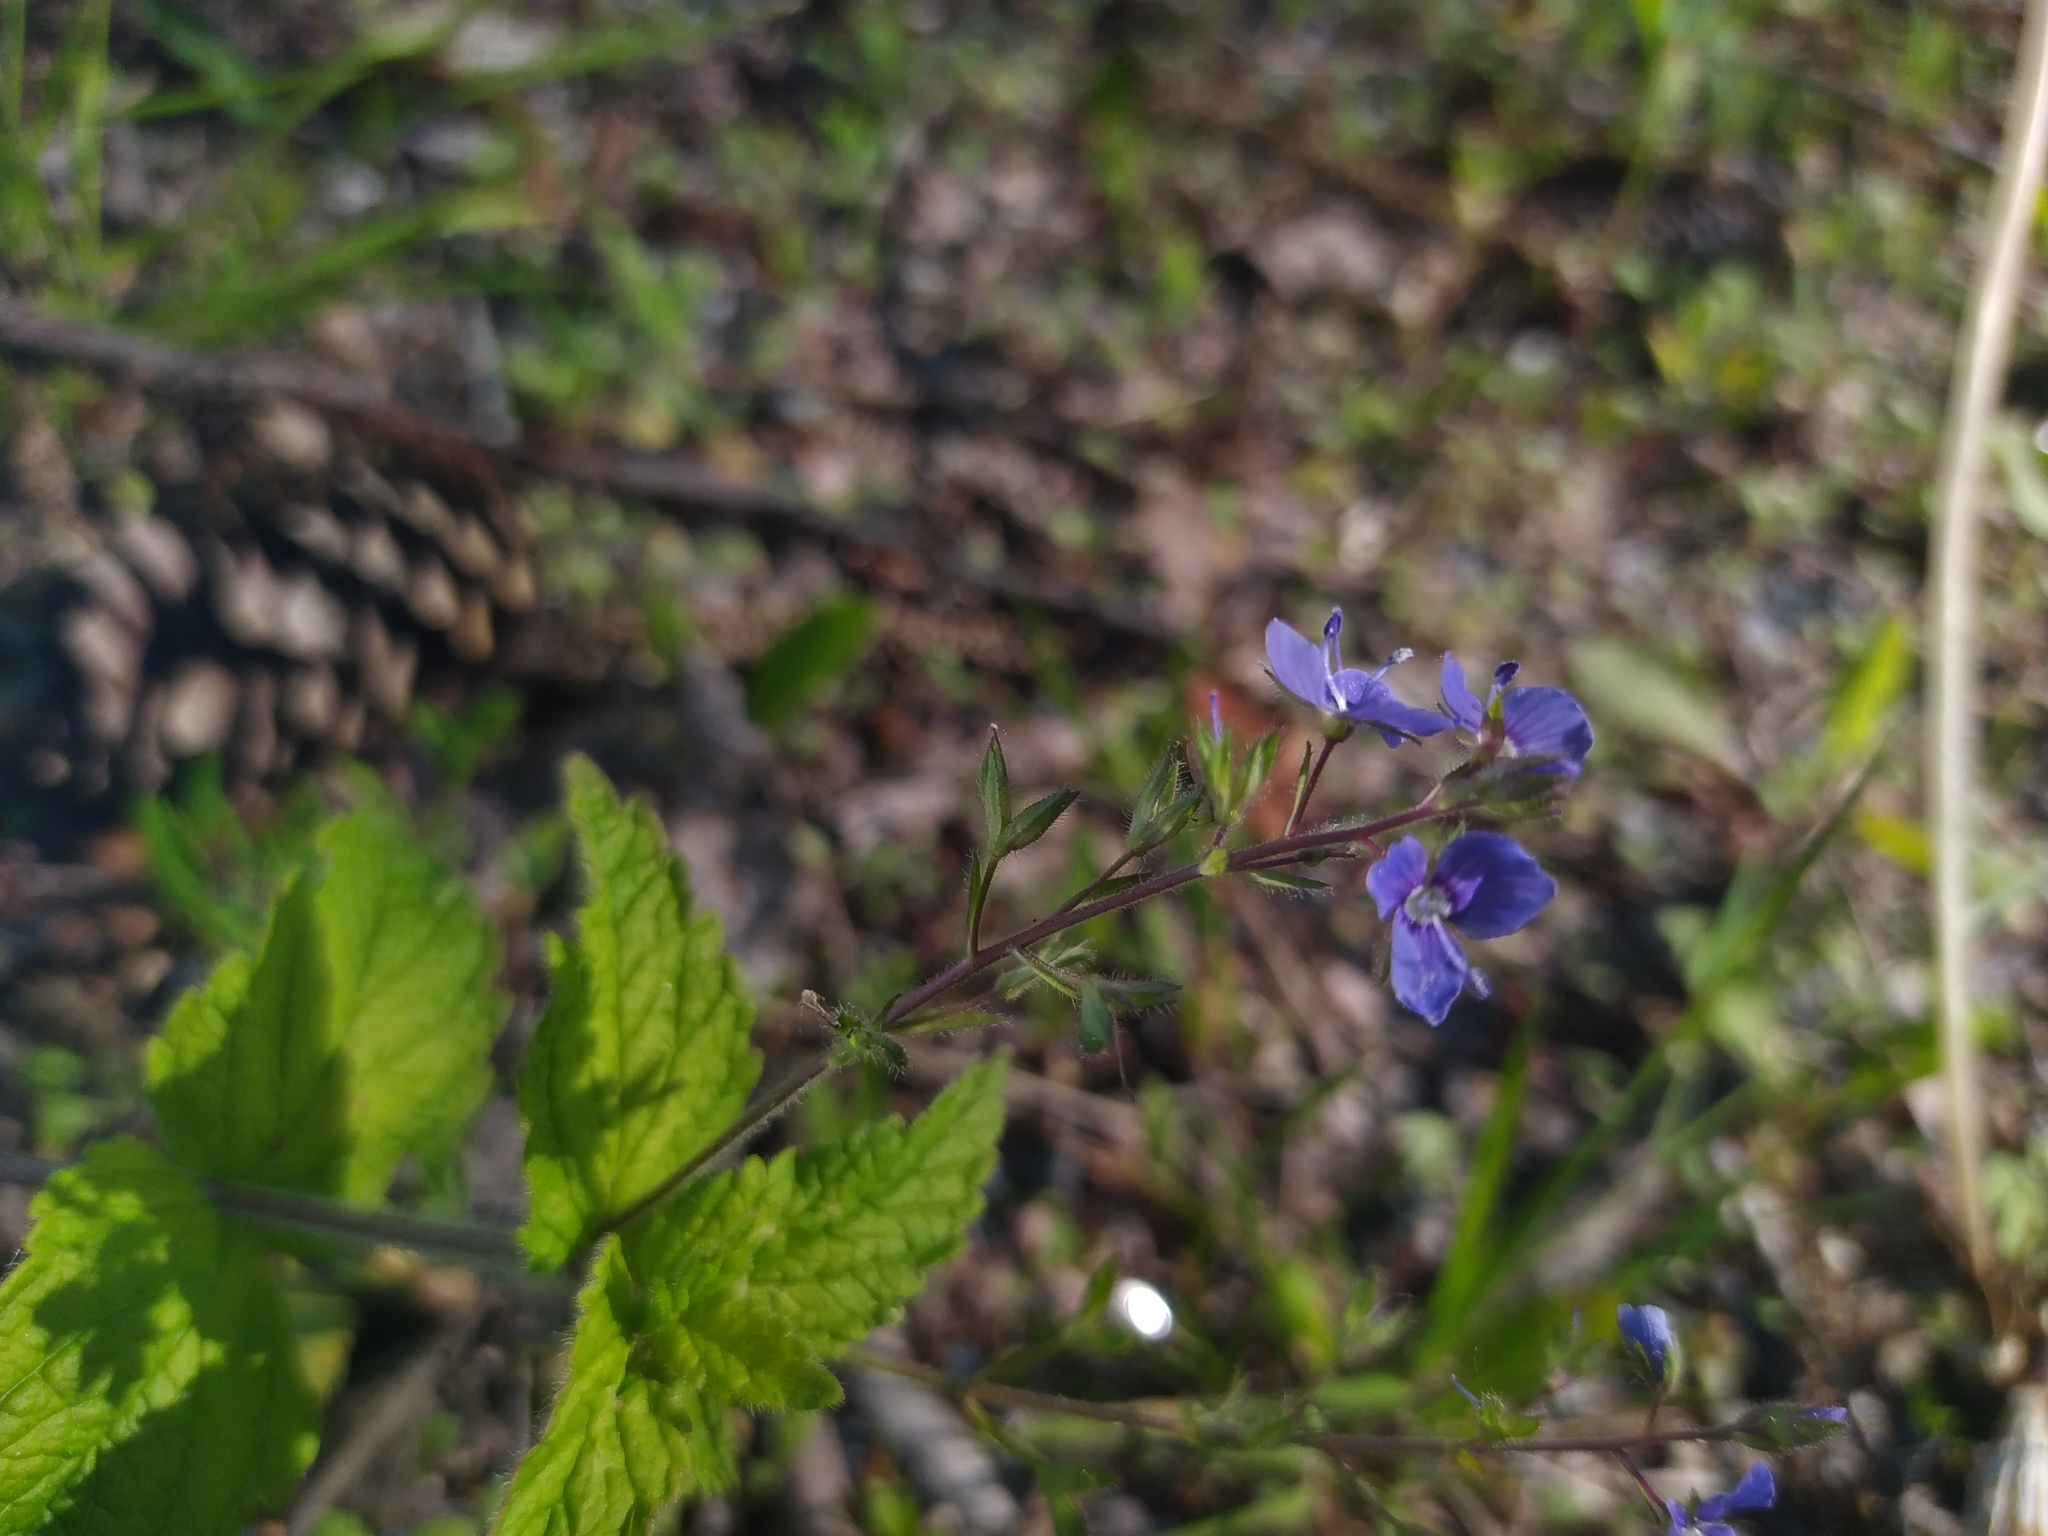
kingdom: Plantae
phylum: Tracheophyta
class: Magnoliopsida
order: Lamiales
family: Plantaginaceae
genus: Veronica
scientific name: Veronica chamaedrys
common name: Germander speedwell
